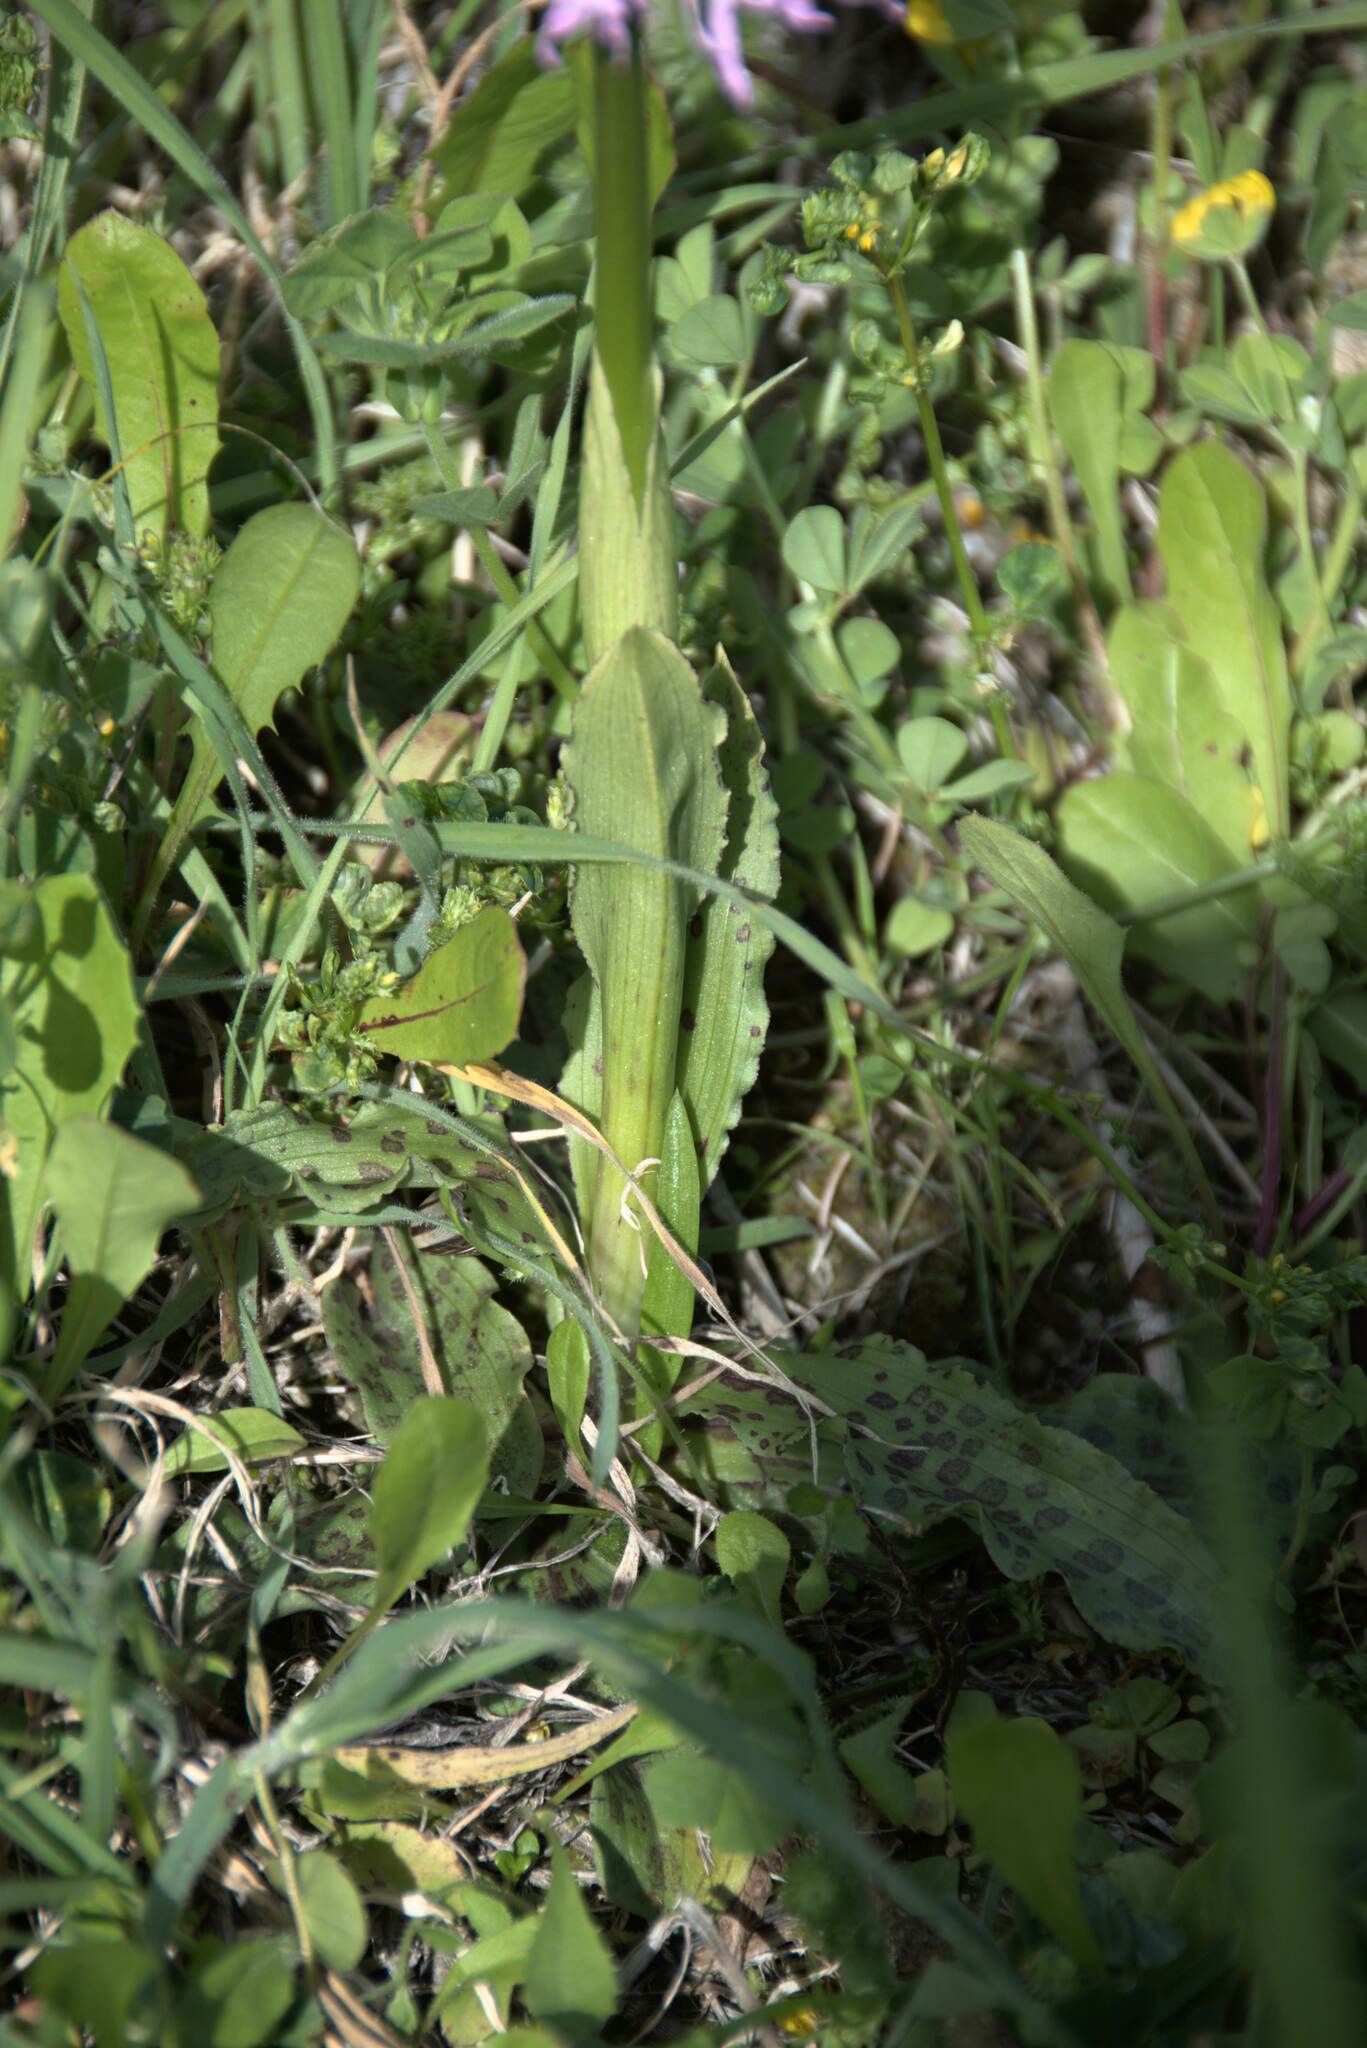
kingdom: Plantae
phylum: Tracheophyta
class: Liliopsida
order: Asparagales
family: Orchidaceae
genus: Orchis
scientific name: Orchis italica
